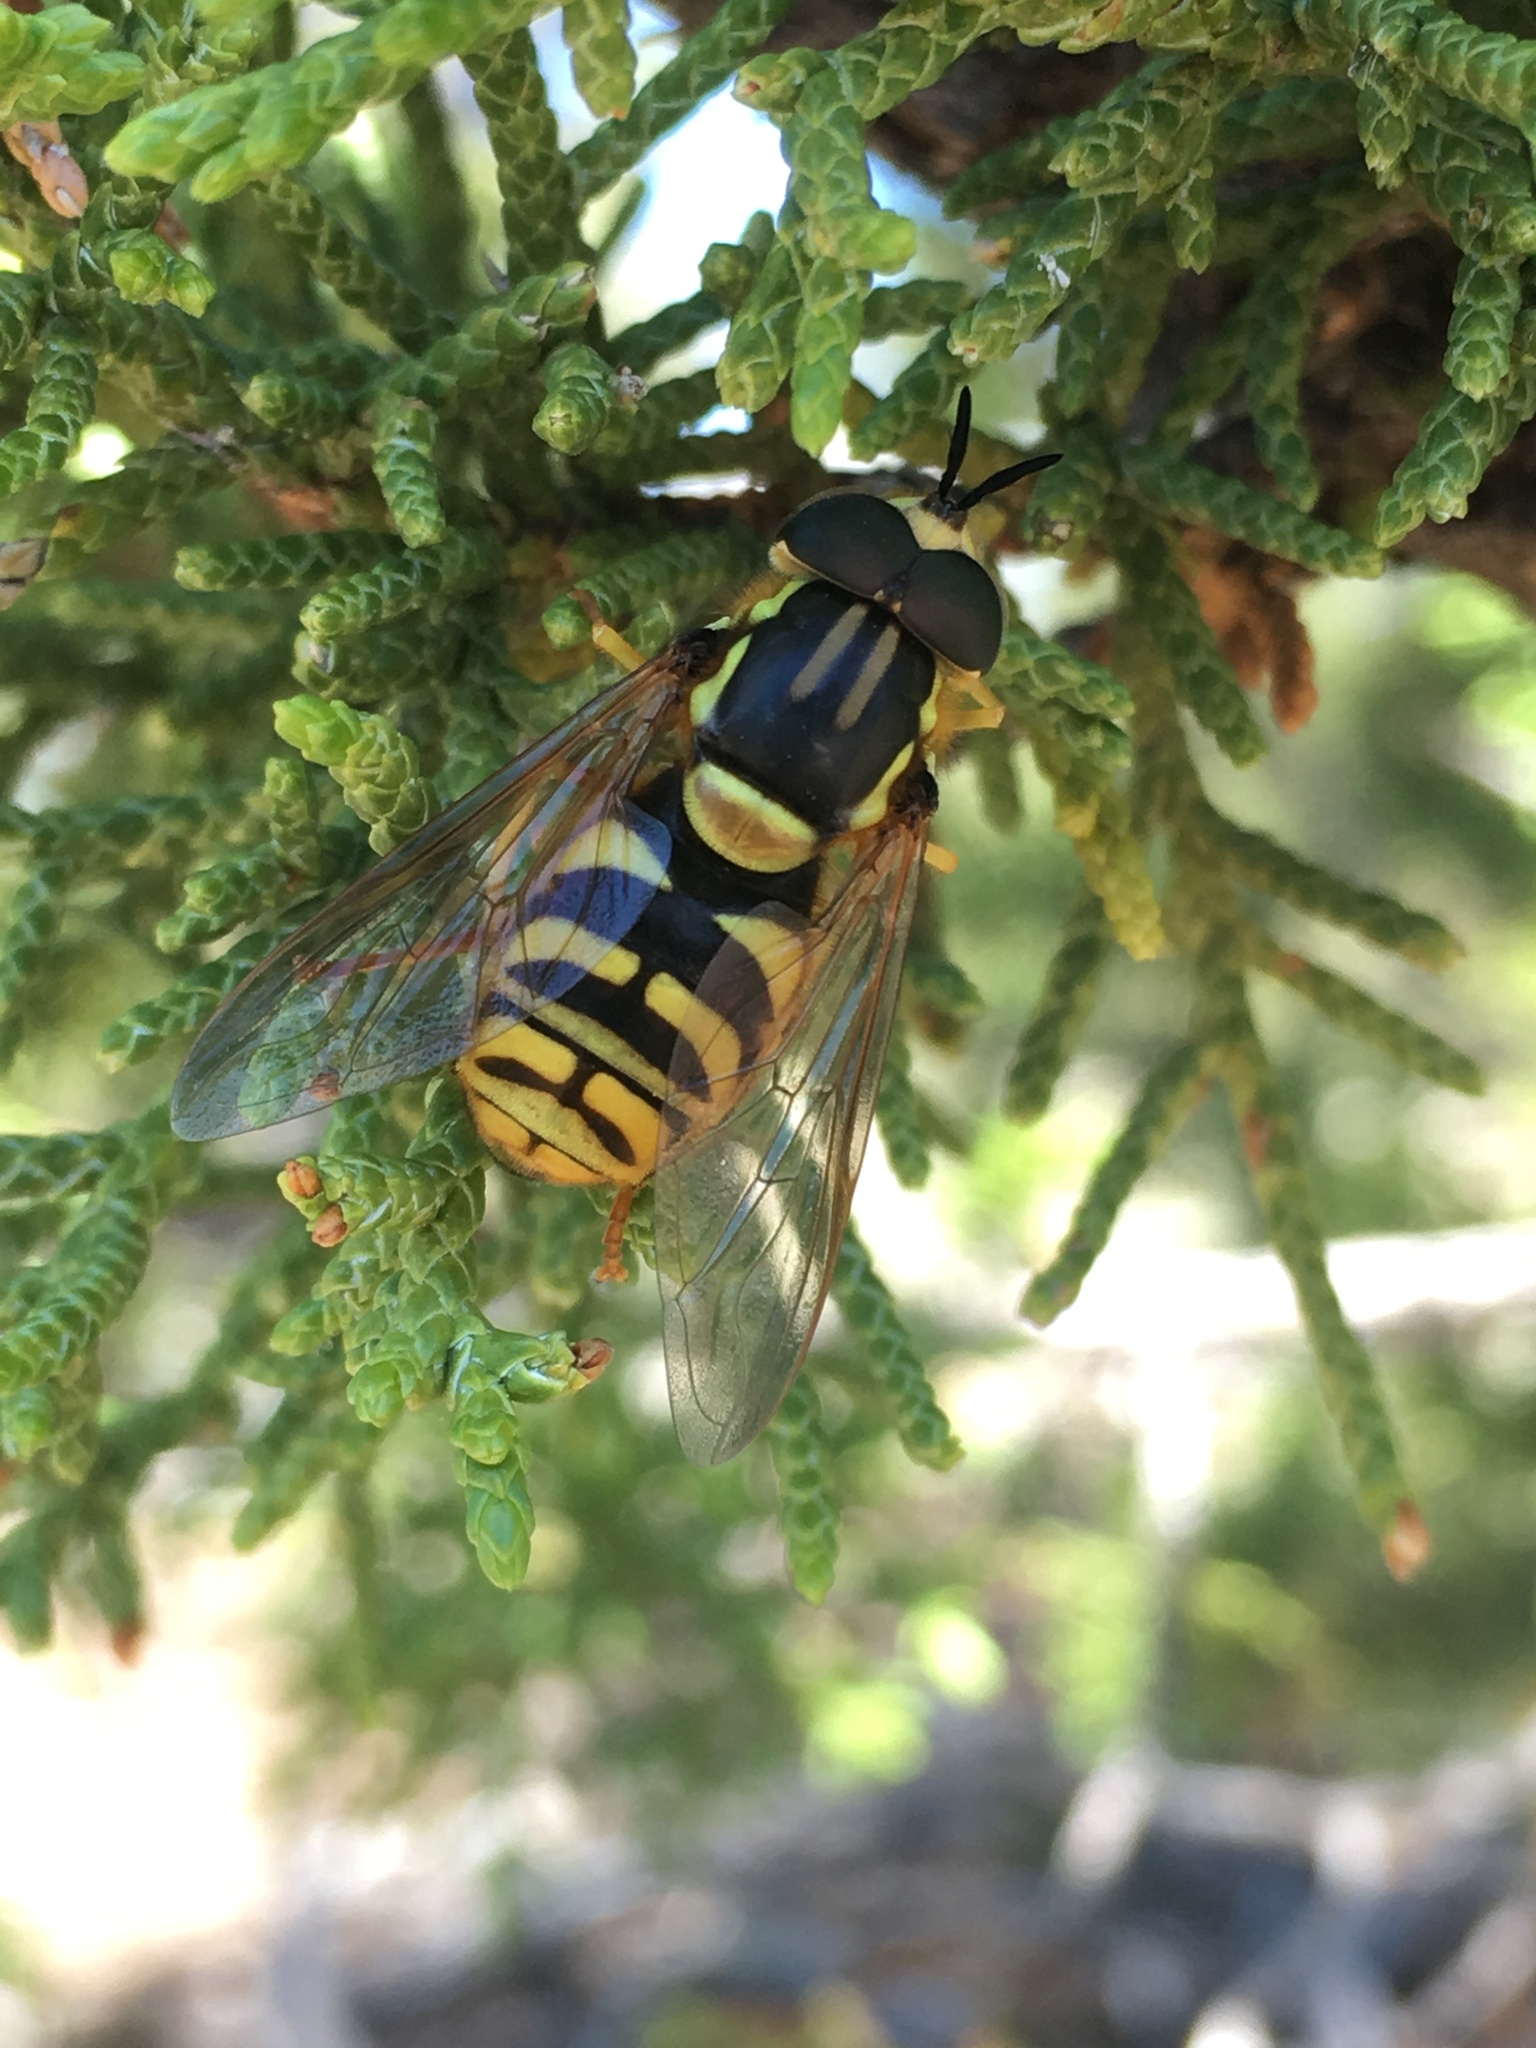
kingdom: Animalia
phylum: Arthropoda
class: Insecta
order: Diptera
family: Syrphidae
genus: Chrysotoxum
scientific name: Chrysotoxum
